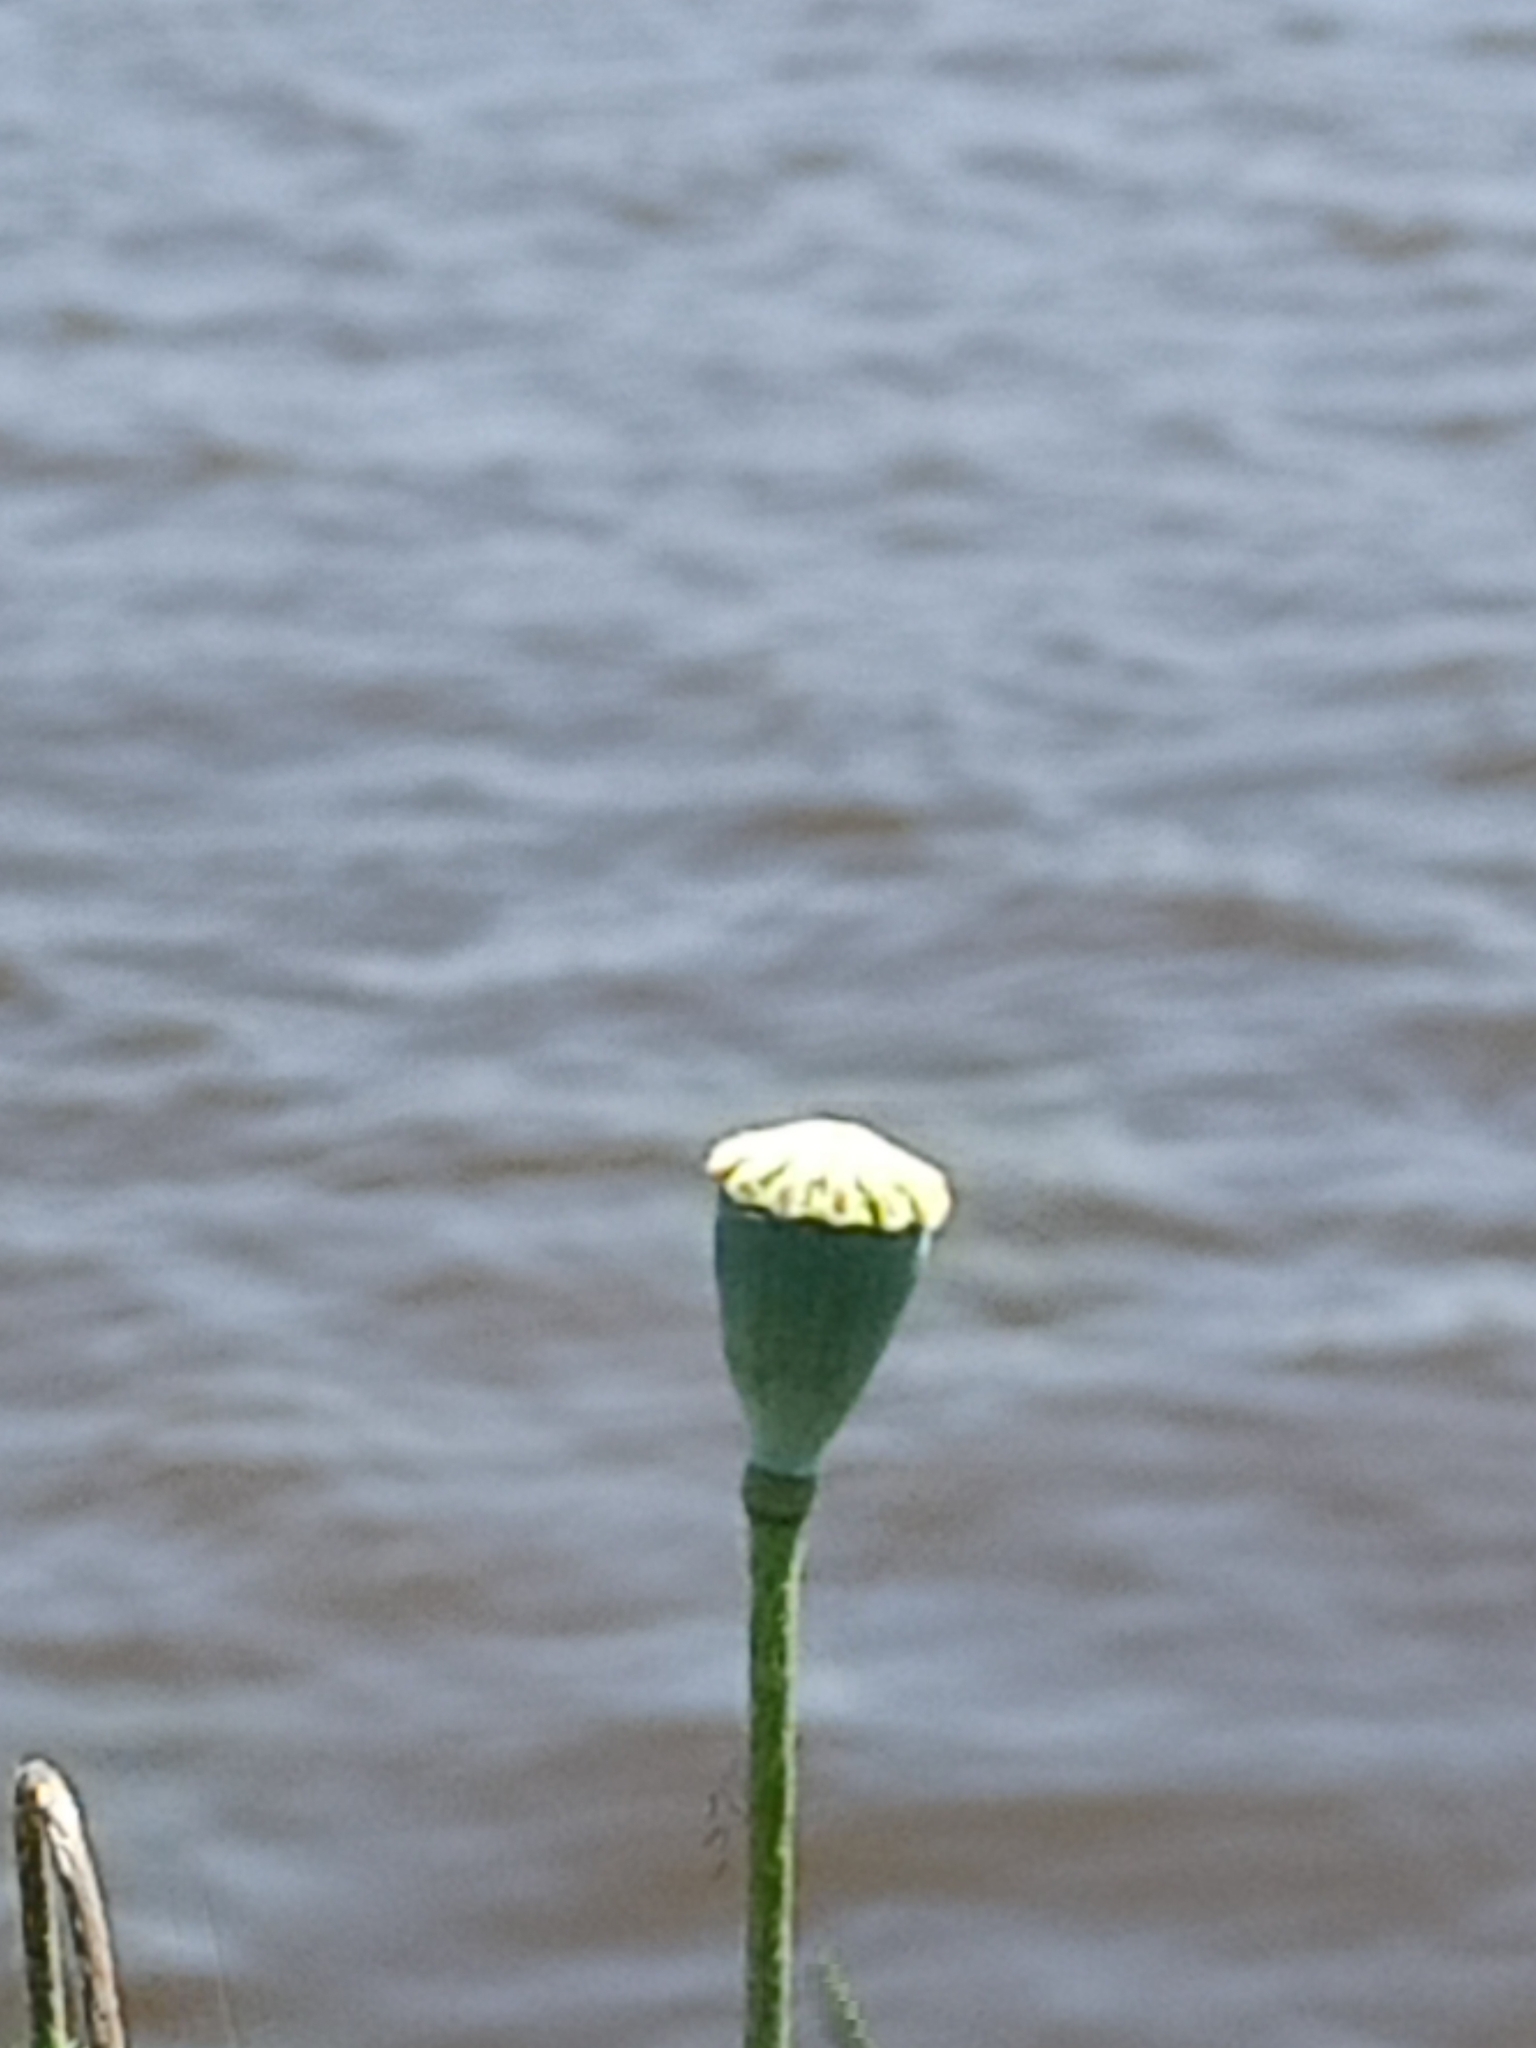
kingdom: Plantae
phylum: Tracheophyta
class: Magnoliopsida
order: Ranunculales
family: Papaveraceae
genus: Papaver
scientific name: Papaver rhoeas
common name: Corn poppy
